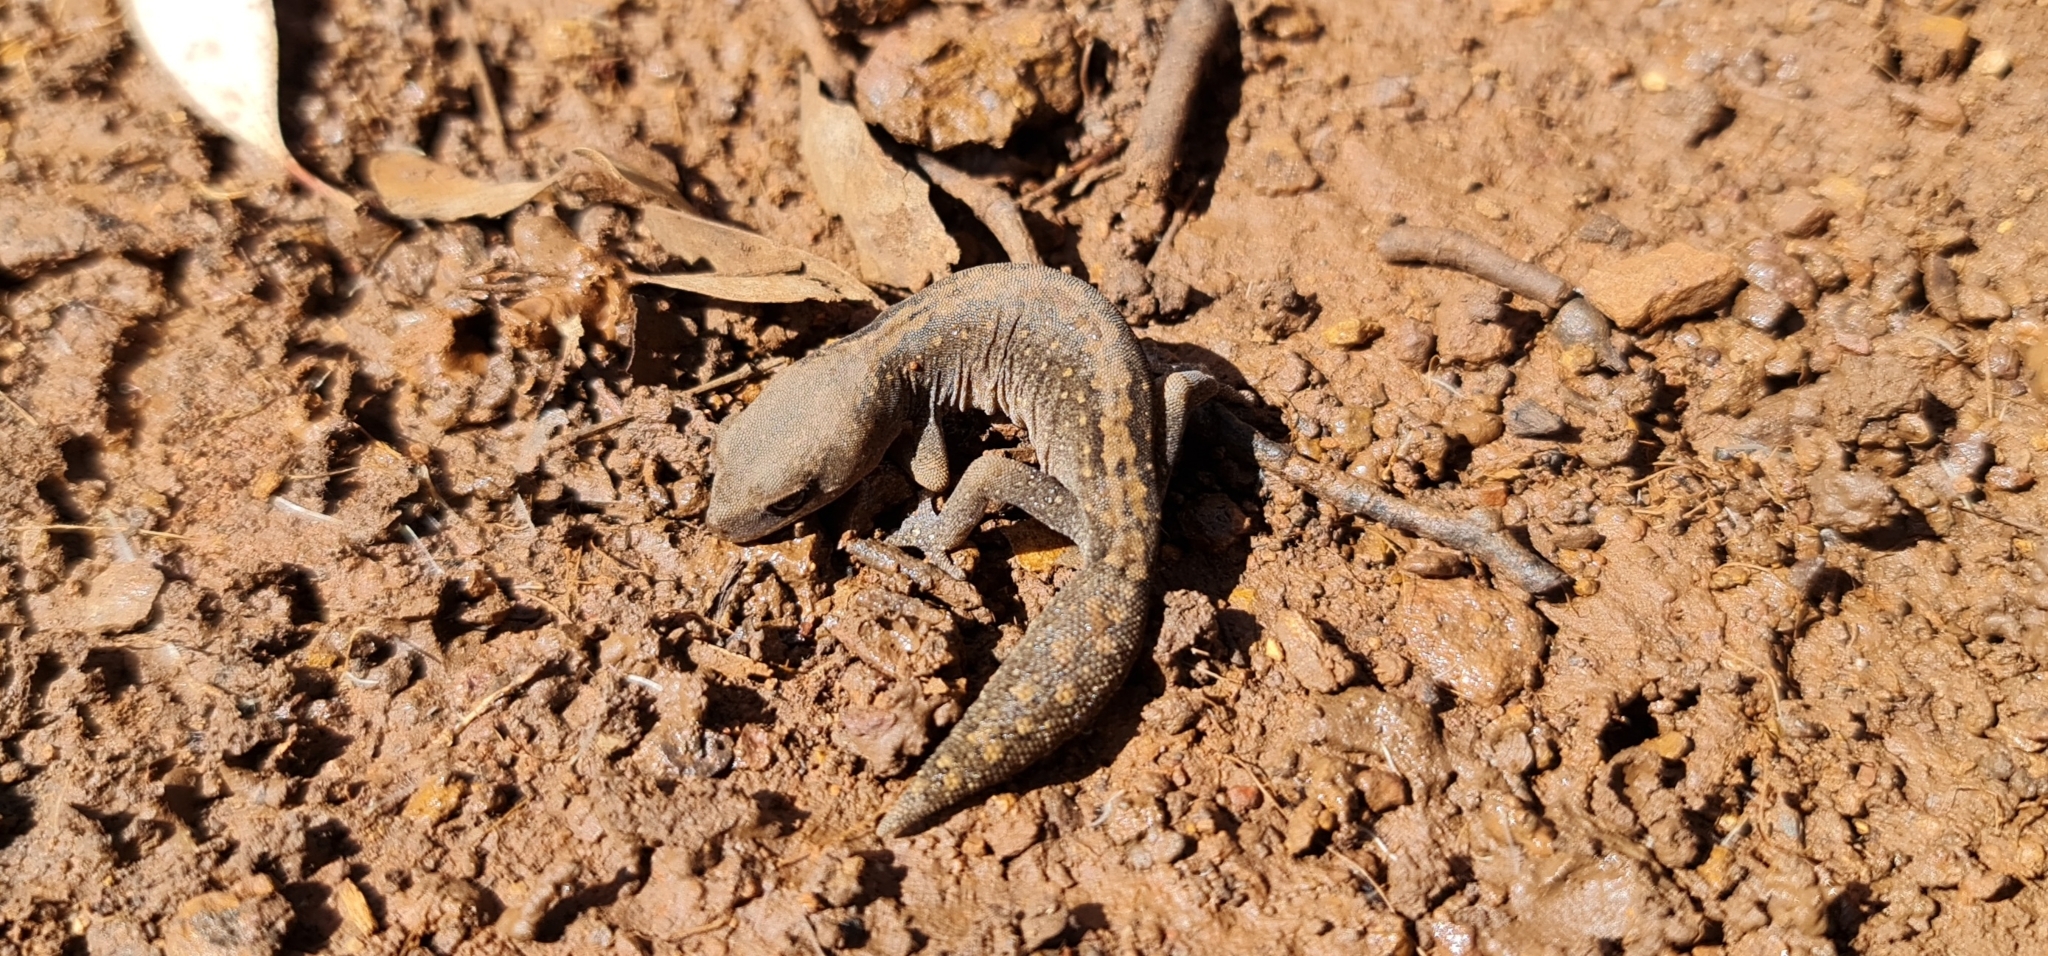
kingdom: Animalia
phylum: Chordata
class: Squamata
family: Diplodactylidae
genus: Diplodactylus
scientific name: Diplodactylus vittatus
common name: Eastern stone gecko
